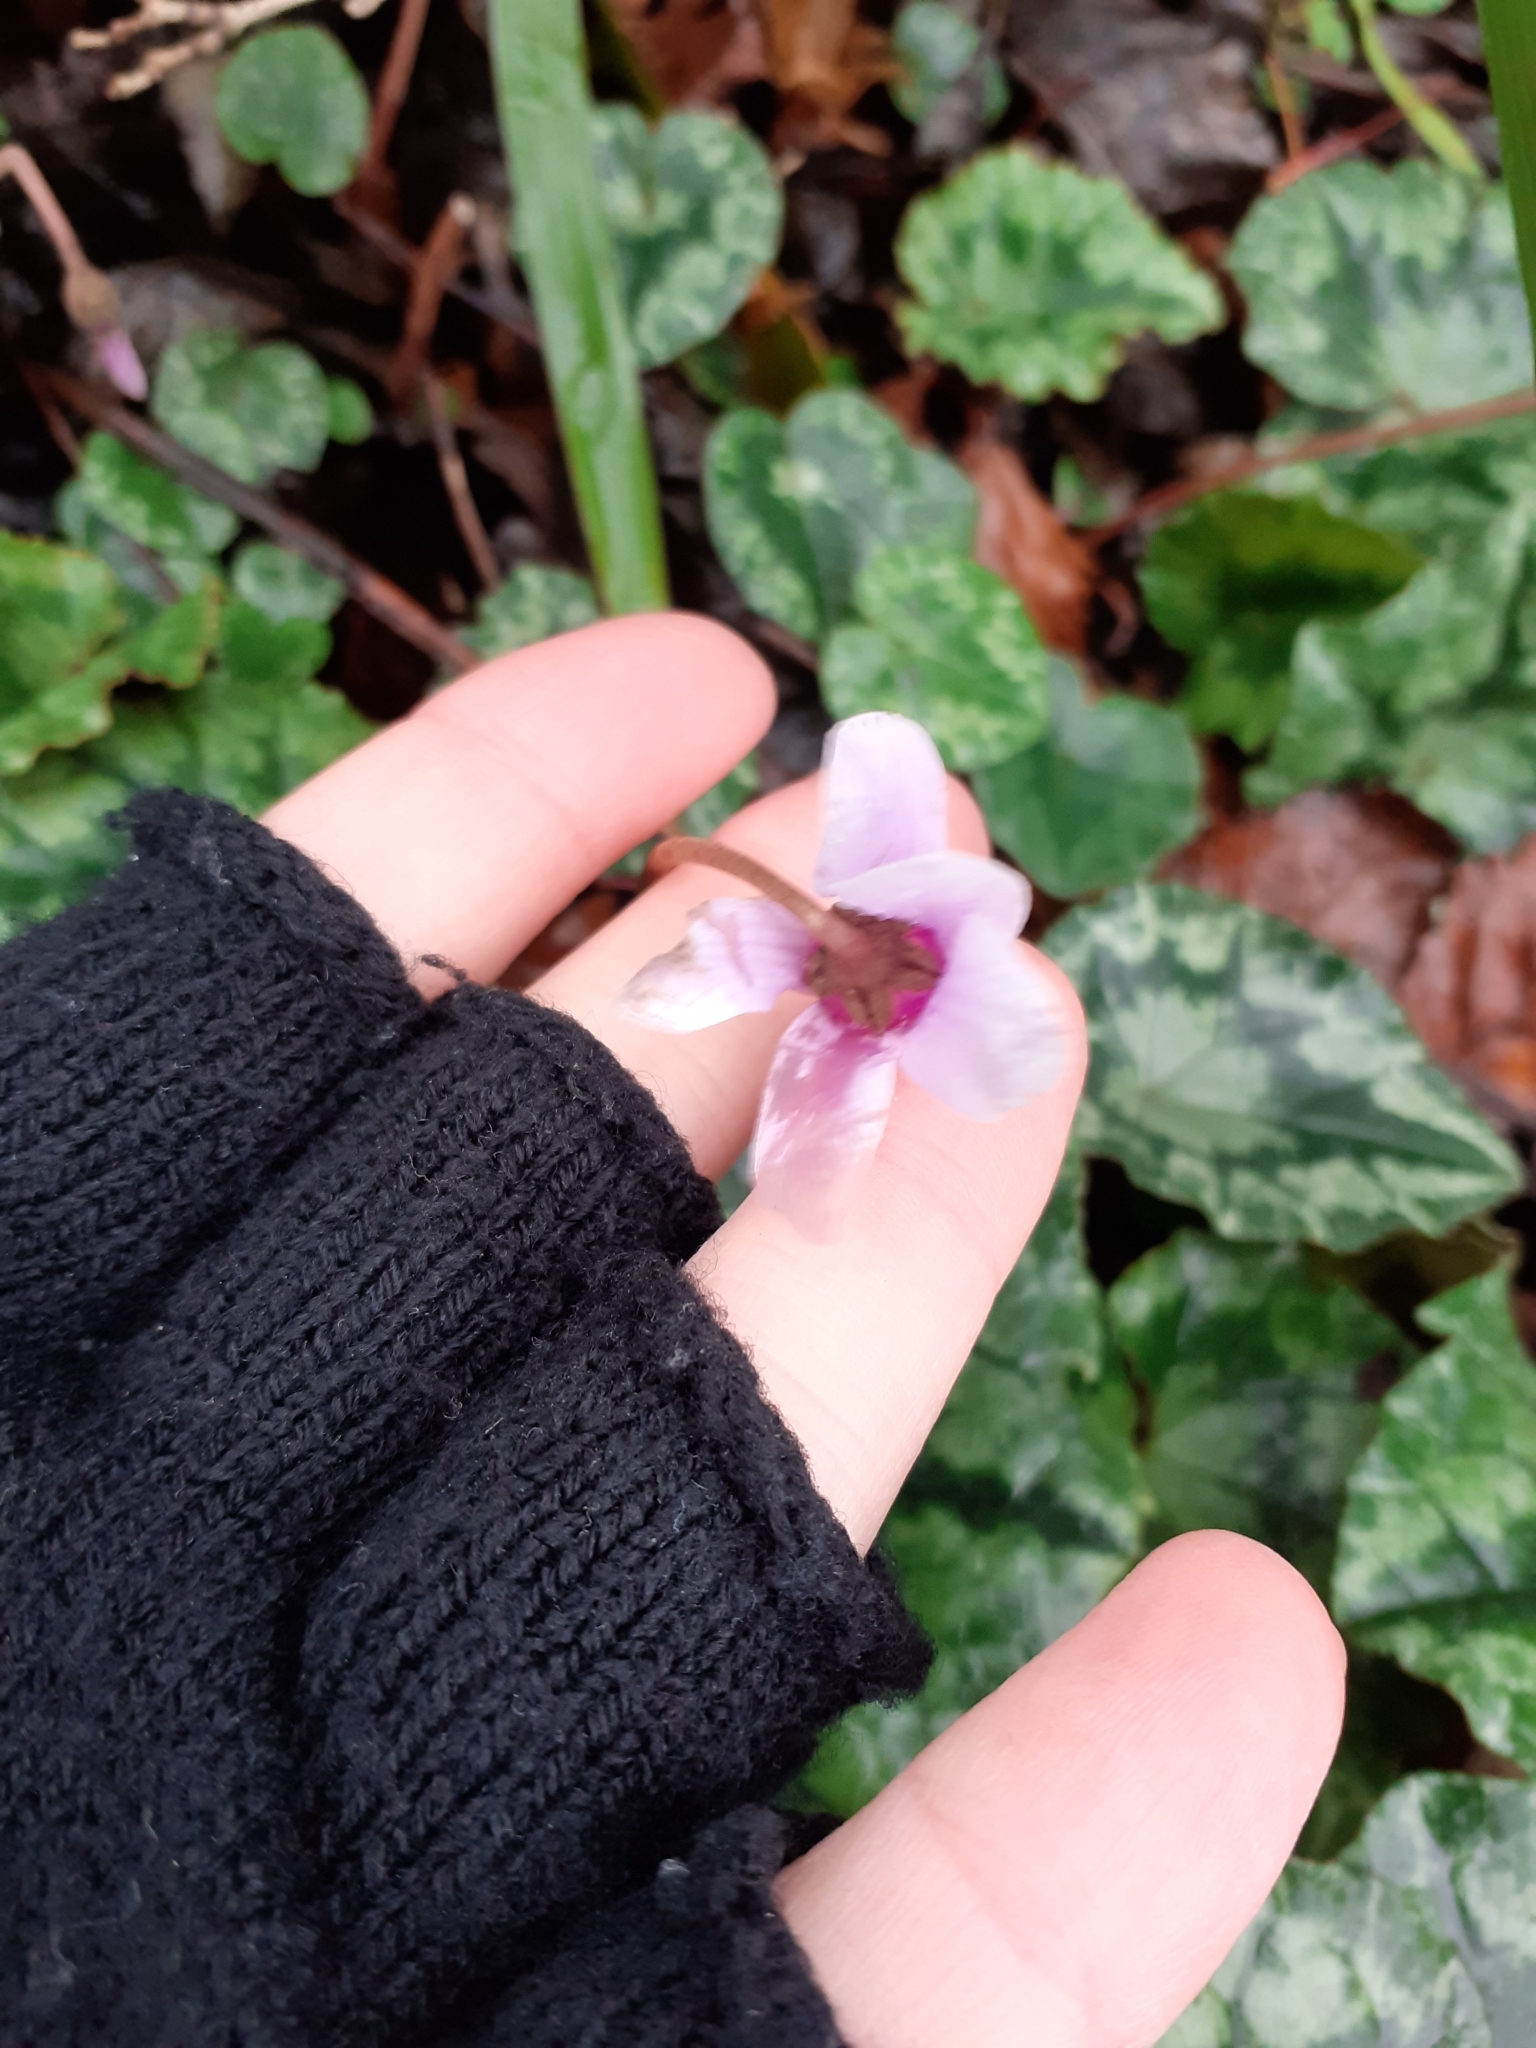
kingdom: Plantae
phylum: Tracheophyta
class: Magnoliopsida
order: Ericales
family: Primulaceae
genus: Cyclamen
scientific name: Cyclamen hederifolium
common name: Sowbread
